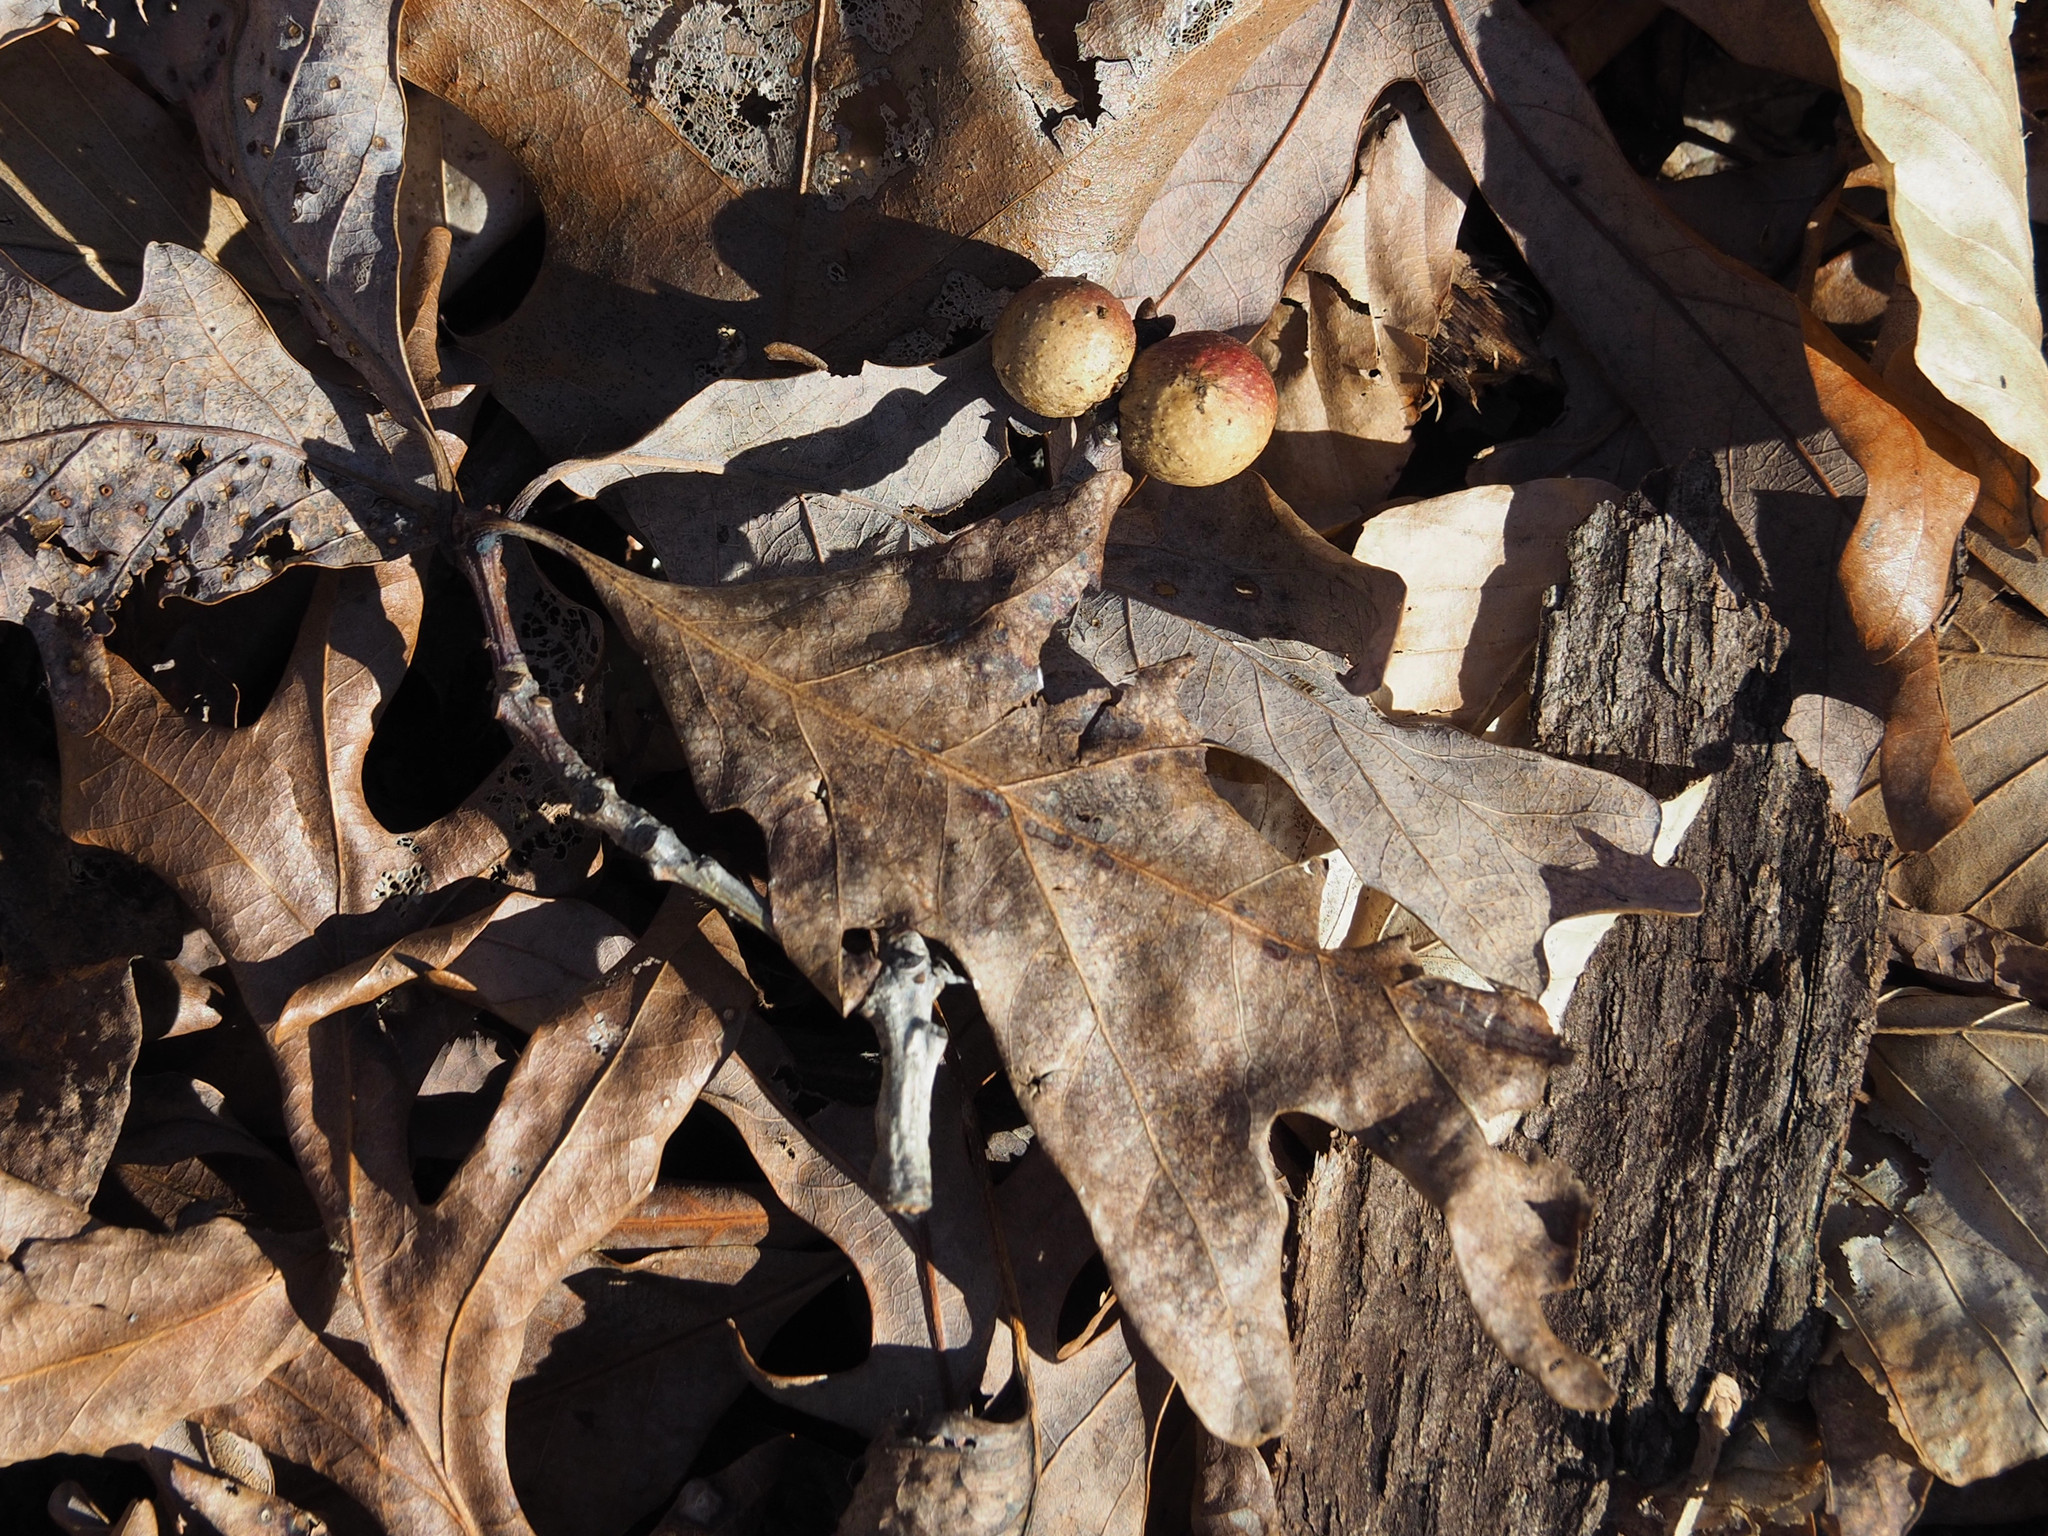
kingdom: Animalia
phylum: Arthropoda
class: Insecta
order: Hymenoptera
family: Cynipidae
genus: Disholcaspis
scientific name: Disholcaspis quercusglobulus
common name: Round bullet gall wasp
